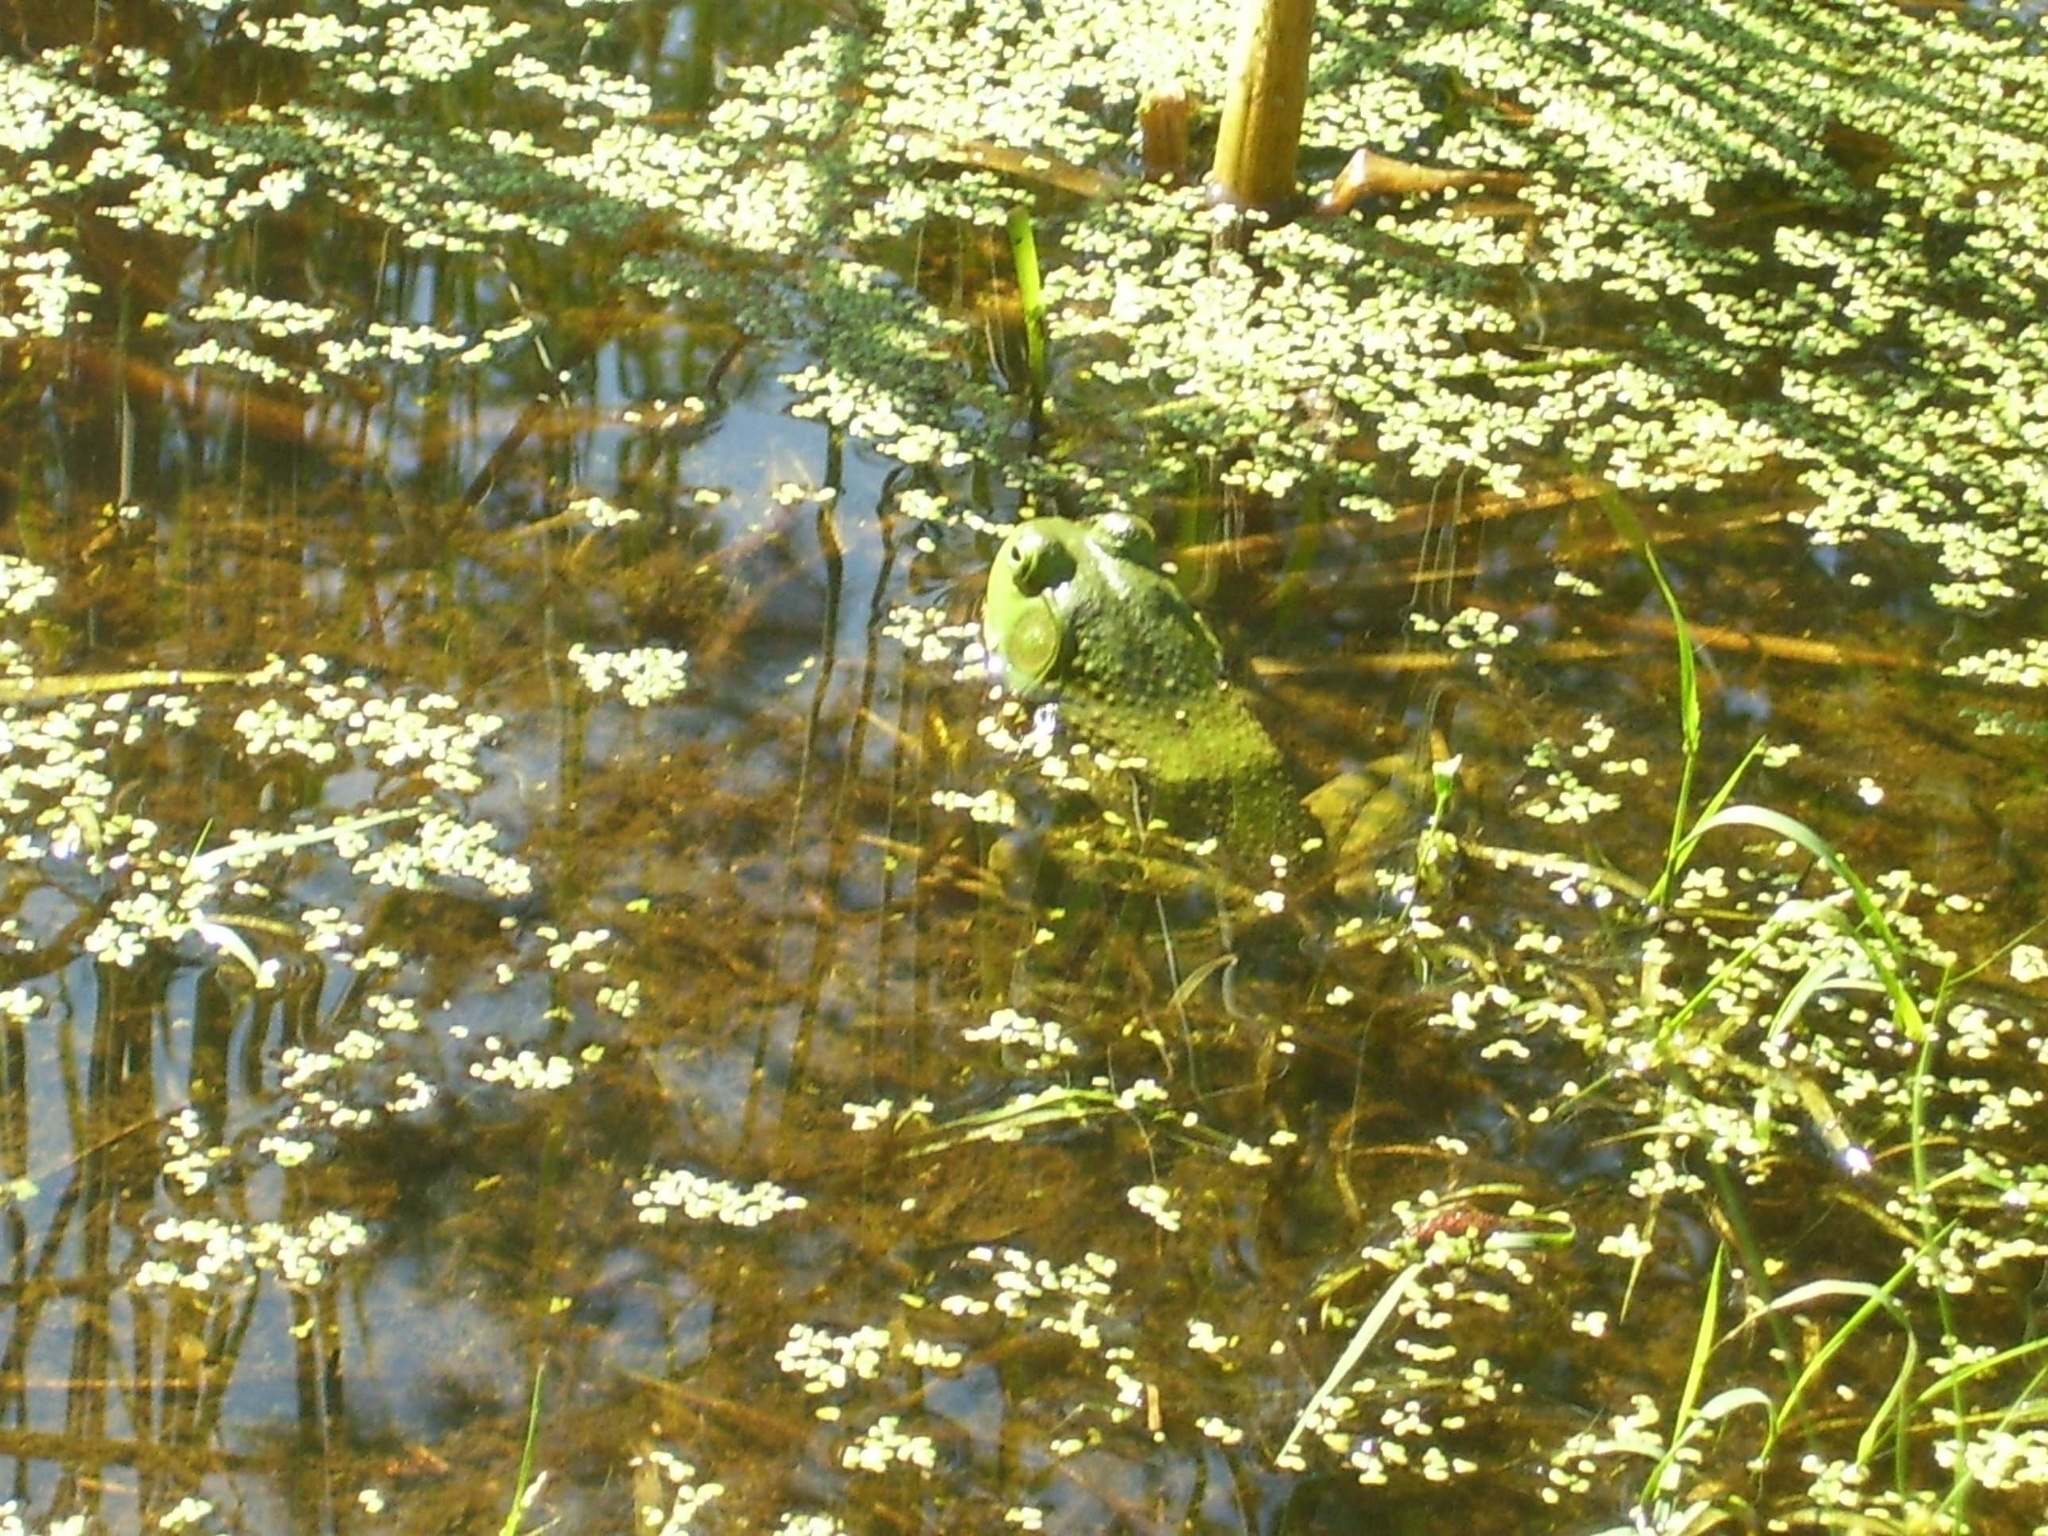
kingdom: Animalia
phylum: Chordata
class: Amphibia
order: Anura
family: Ranidae
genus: Lithobates
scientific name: Lithobates catesbeianus
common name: American bullfrog
